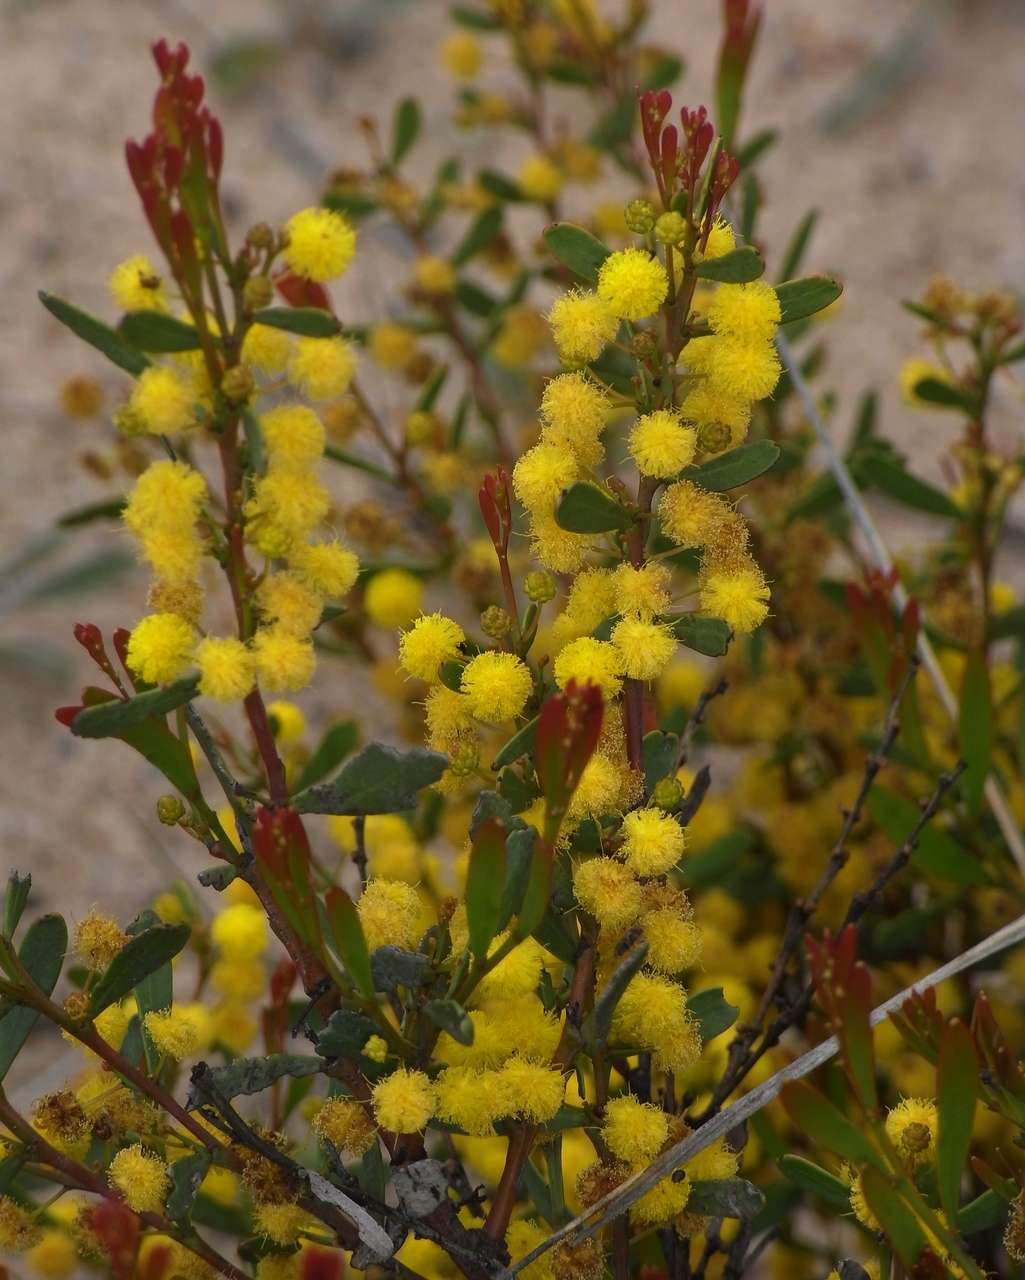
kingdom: Plantae
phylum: Tracheophyta
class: Magnoliopsida
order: Fabales
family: Fabaceae
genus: Acacia
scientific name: Acacia microcarpa
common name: Manna wattle
